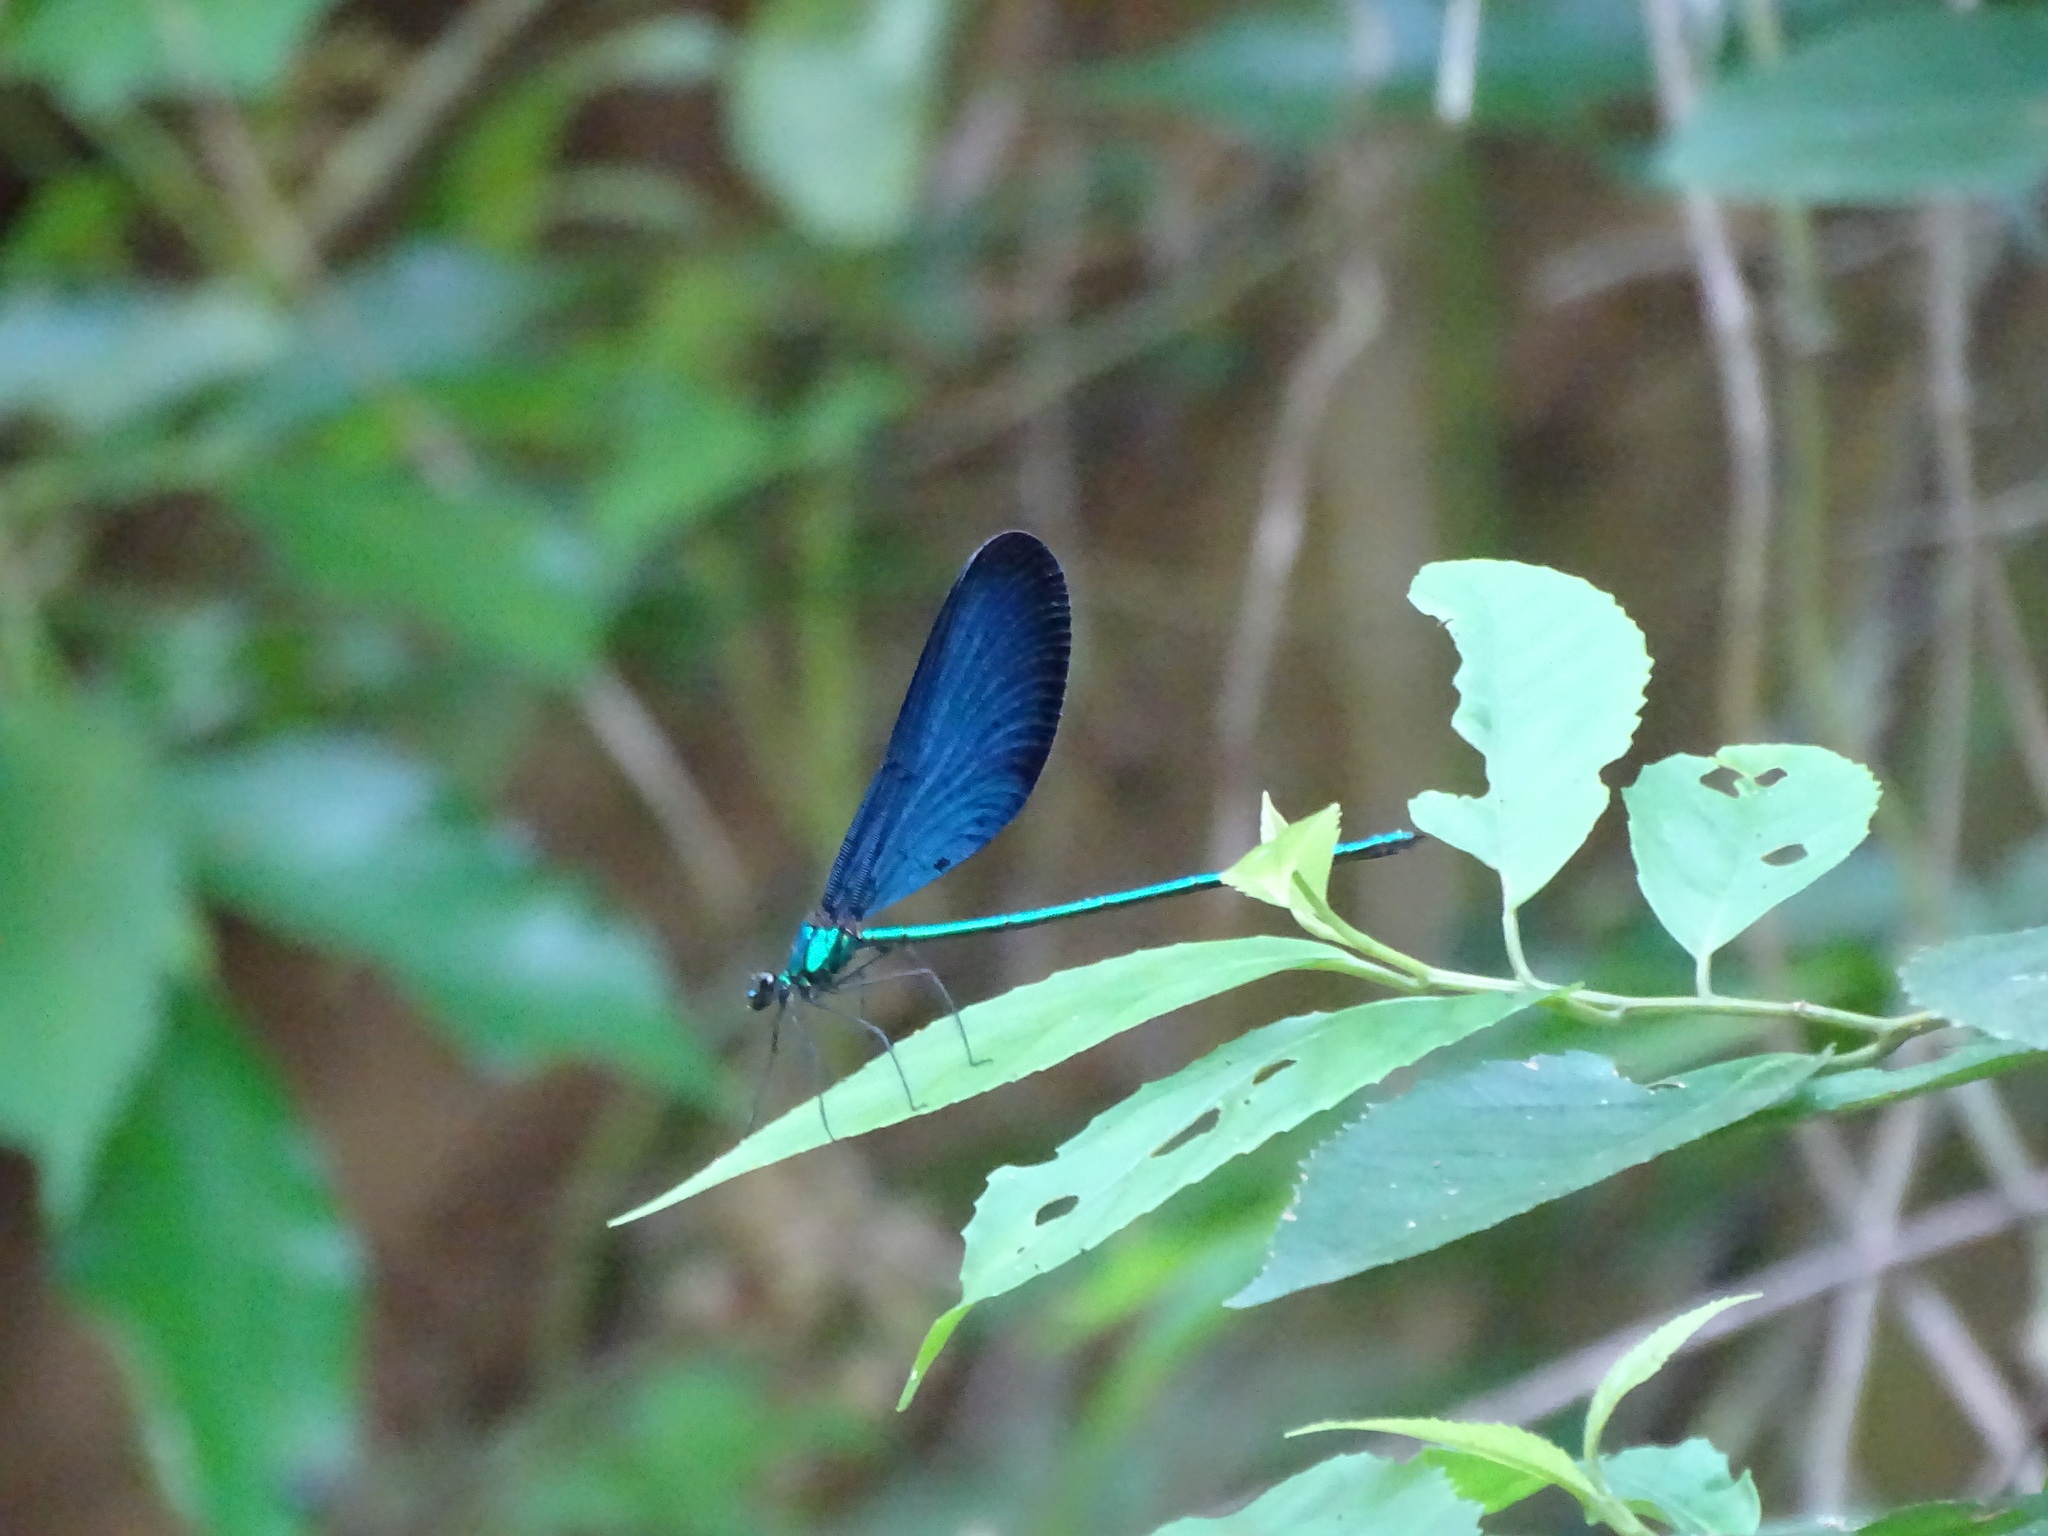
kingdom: Animalia
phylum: Arthropoda
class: Insecta
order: Odonata
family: Calopterygidae
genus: Matrona
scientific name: Matrona cyanoptera
